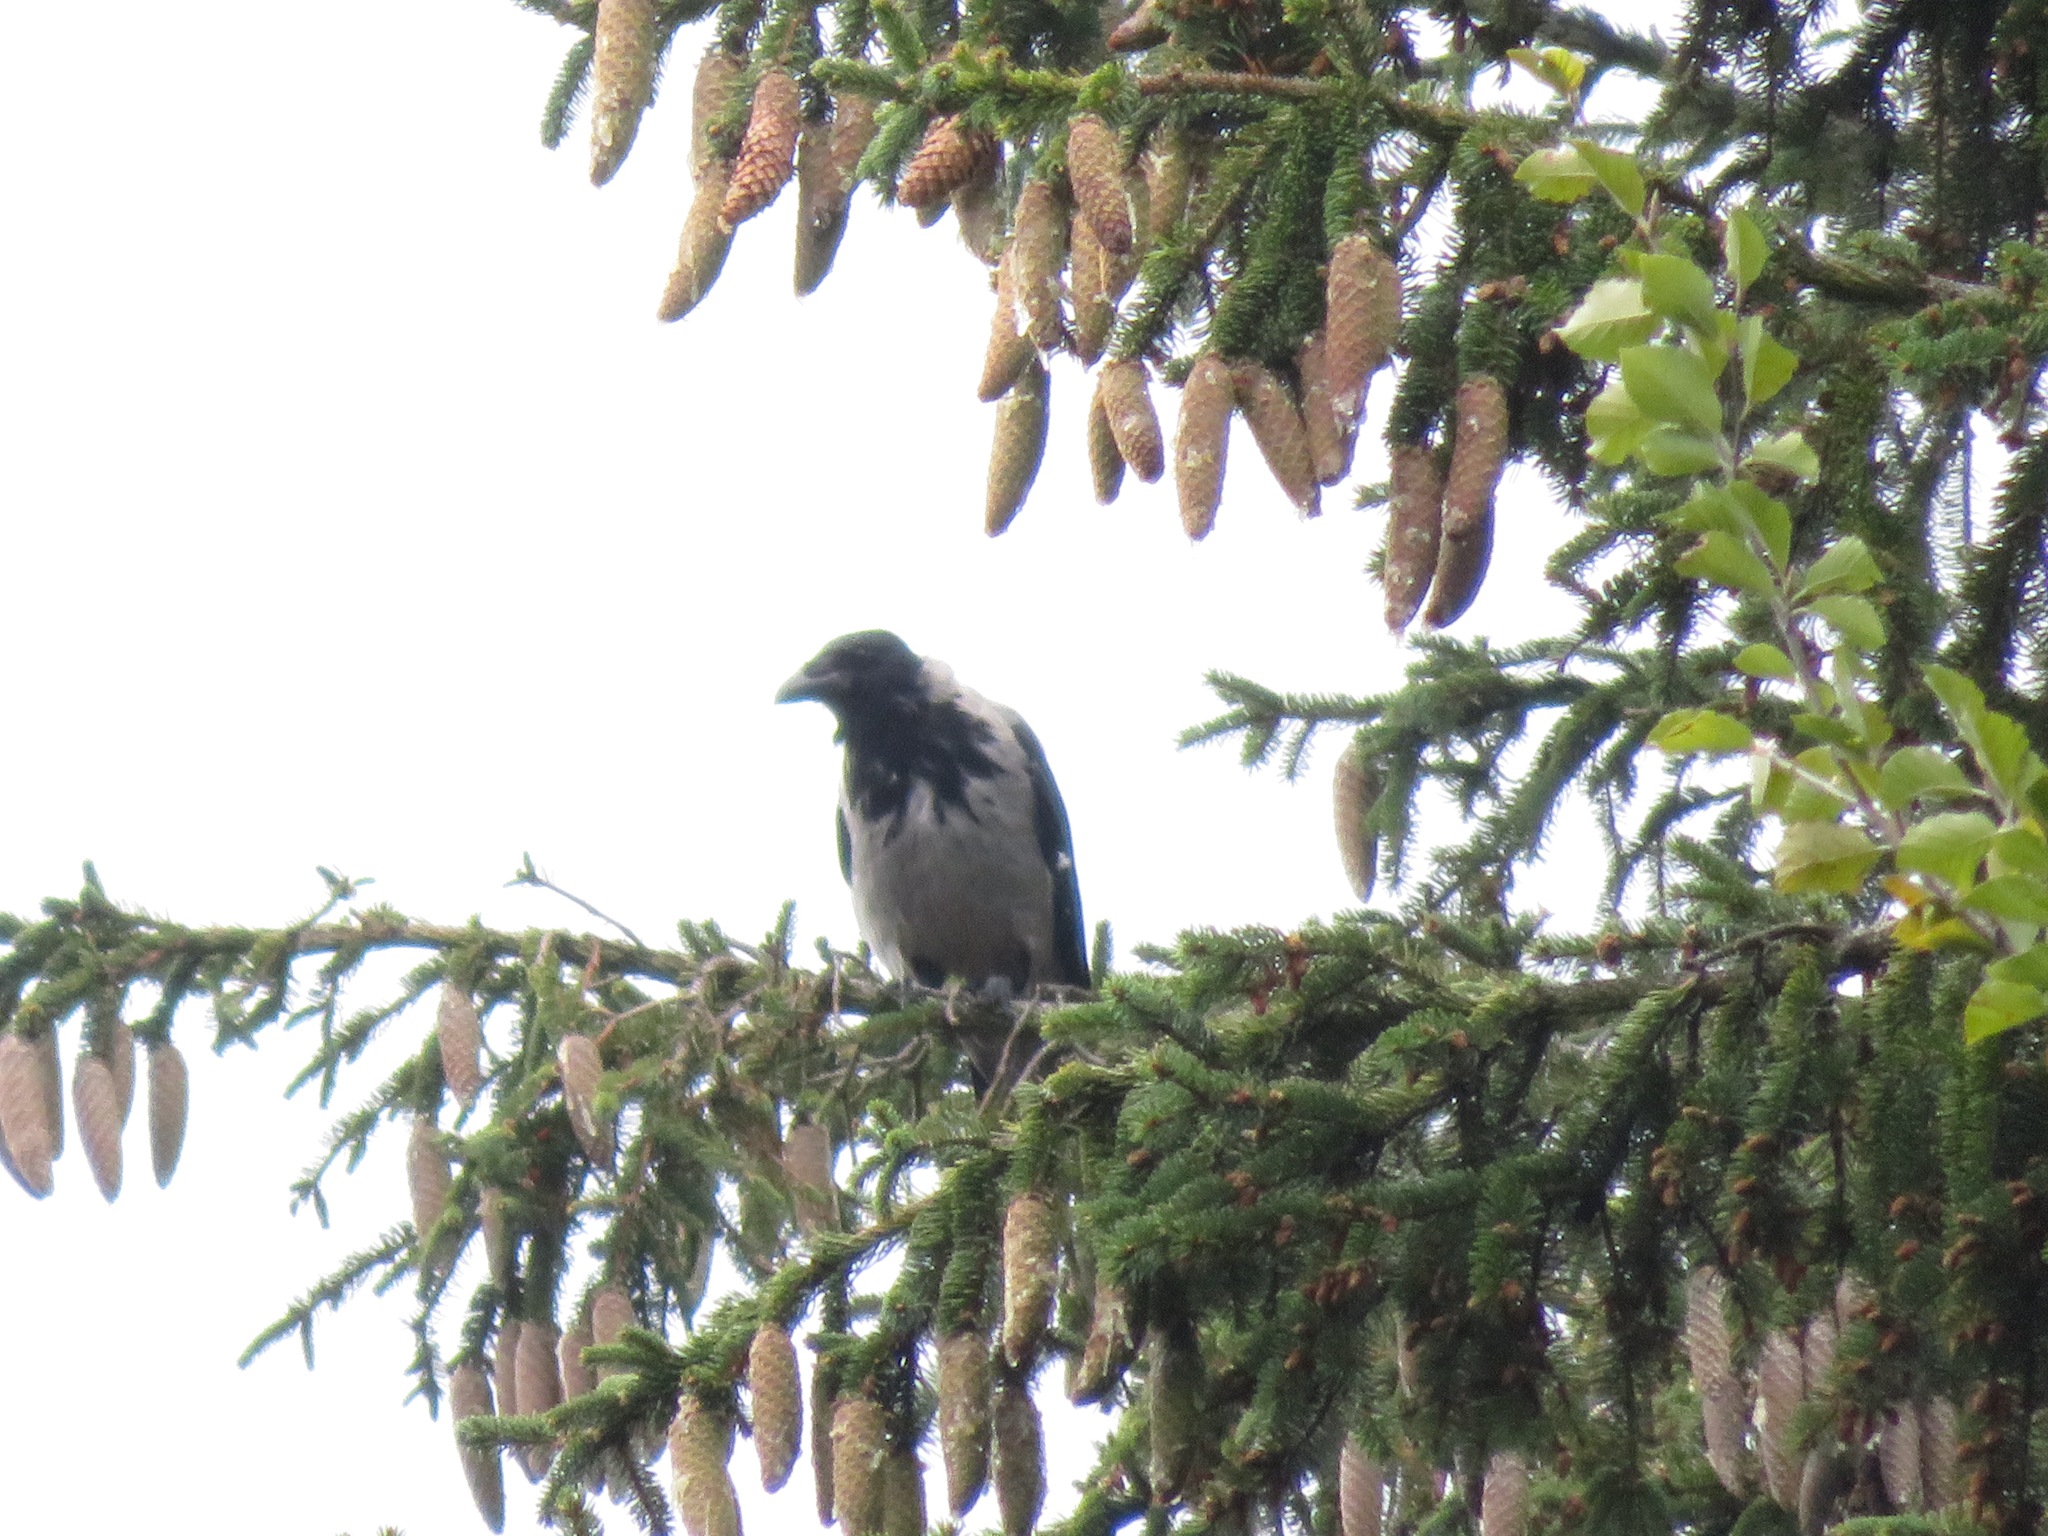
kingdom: Animalia
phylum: Chordata
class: Aves
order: Passeriformes
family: Corvidae
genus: Corvus
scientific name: Corvus cornix
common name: Hooded crow
